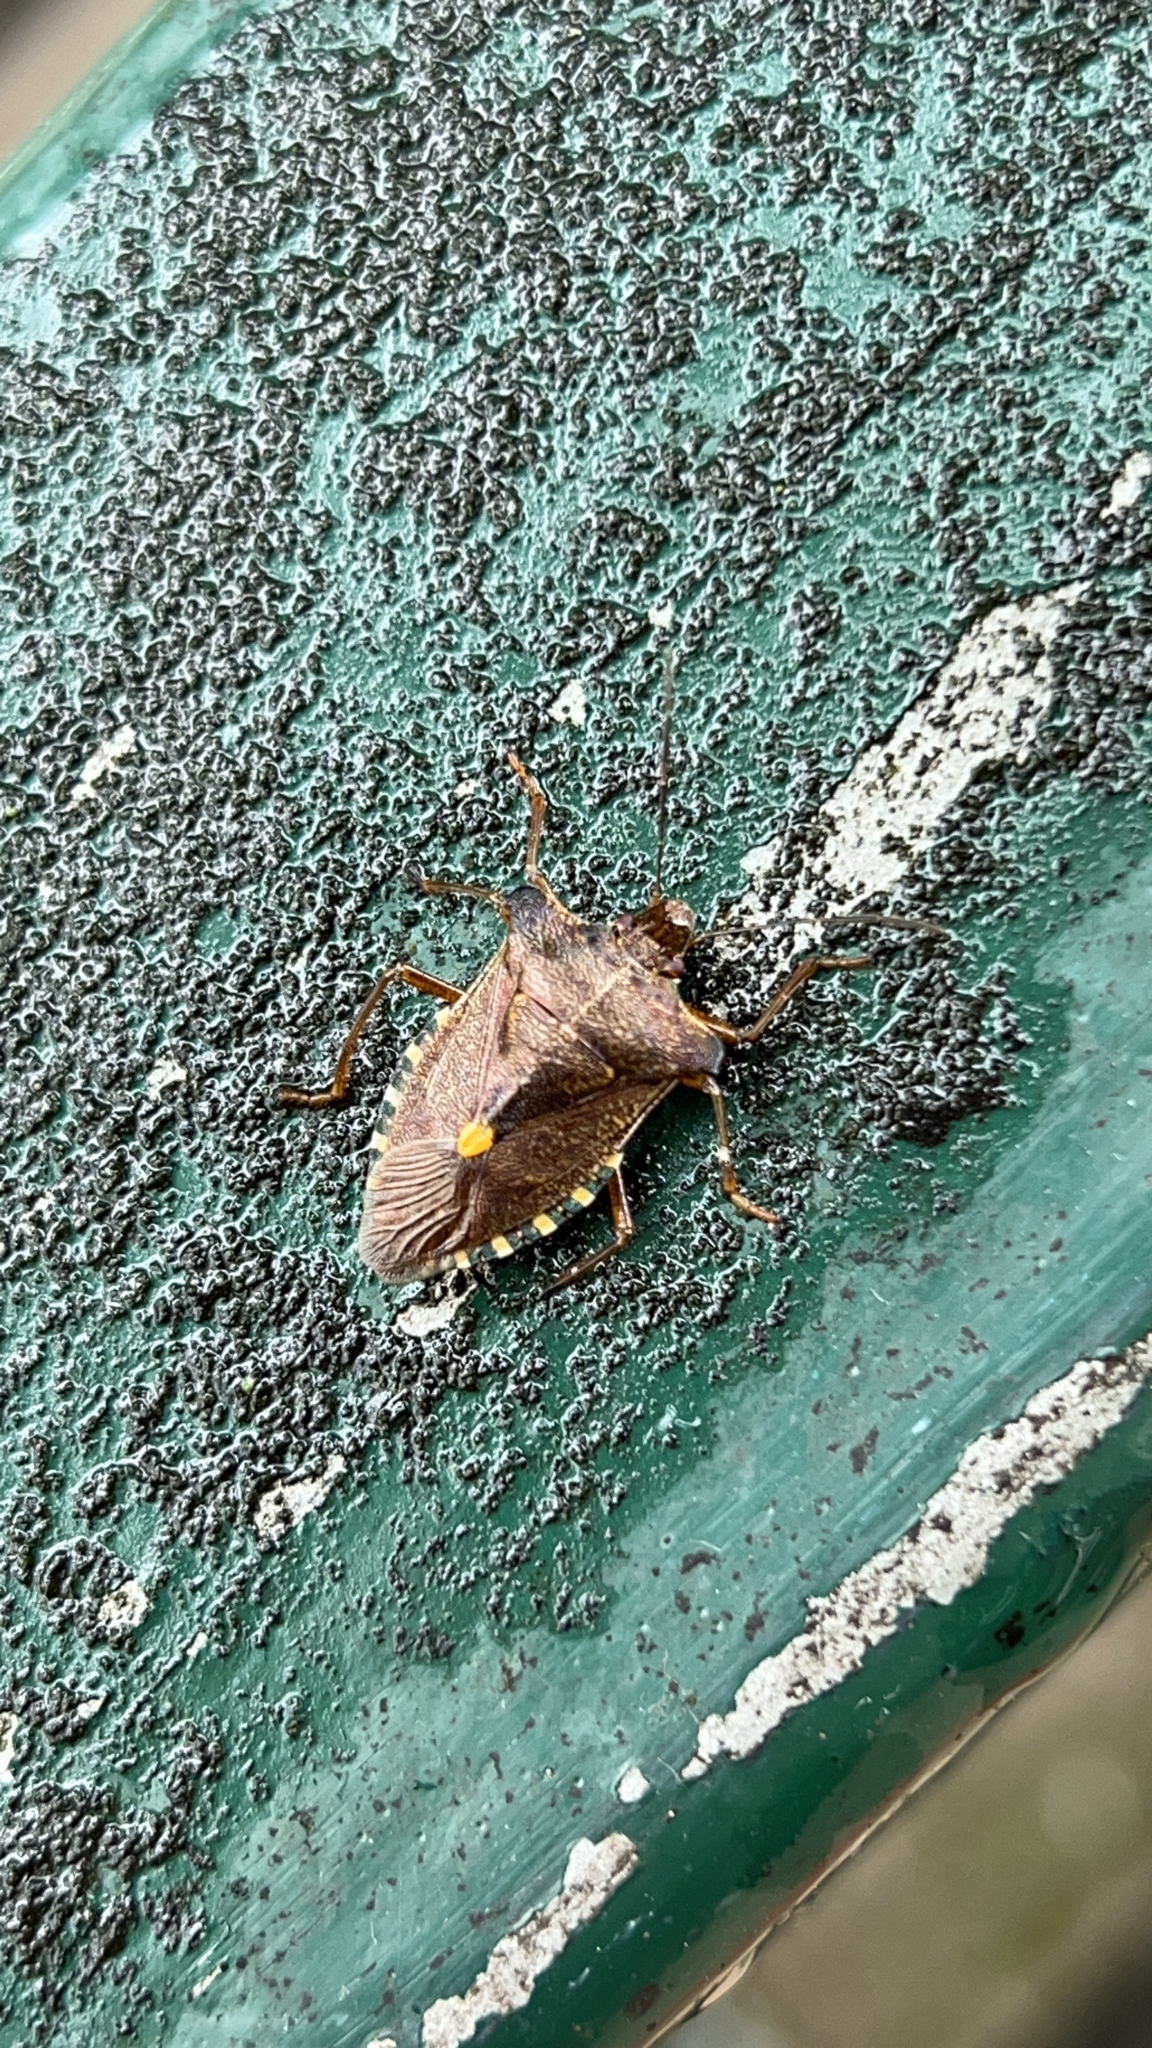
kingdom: Animalia
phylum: Arthropoda
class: Insecta
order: Hemiptera
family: Pentatomidae
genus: Pentatoma
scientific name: Pentatoma rufipes
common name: Forest bug
